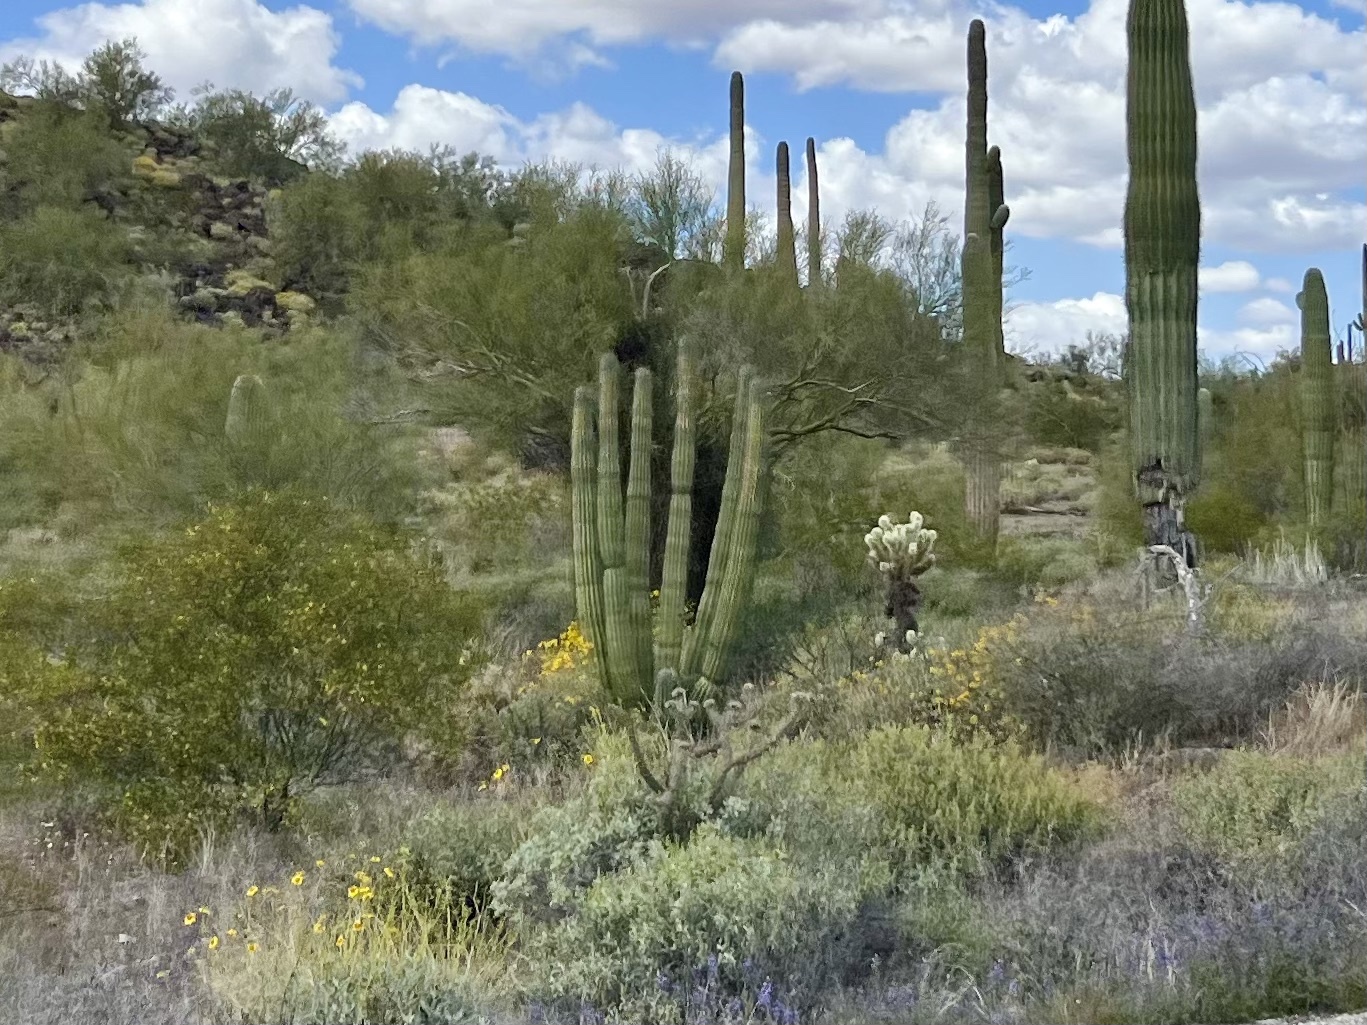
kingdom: Plantae
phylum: Tracheophyta
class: Magnoliopsida
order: Caryophyllales
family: Cactaceae
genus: Stenocereus
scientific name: Stenocereus thurberi
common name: Organ pipe cactus
